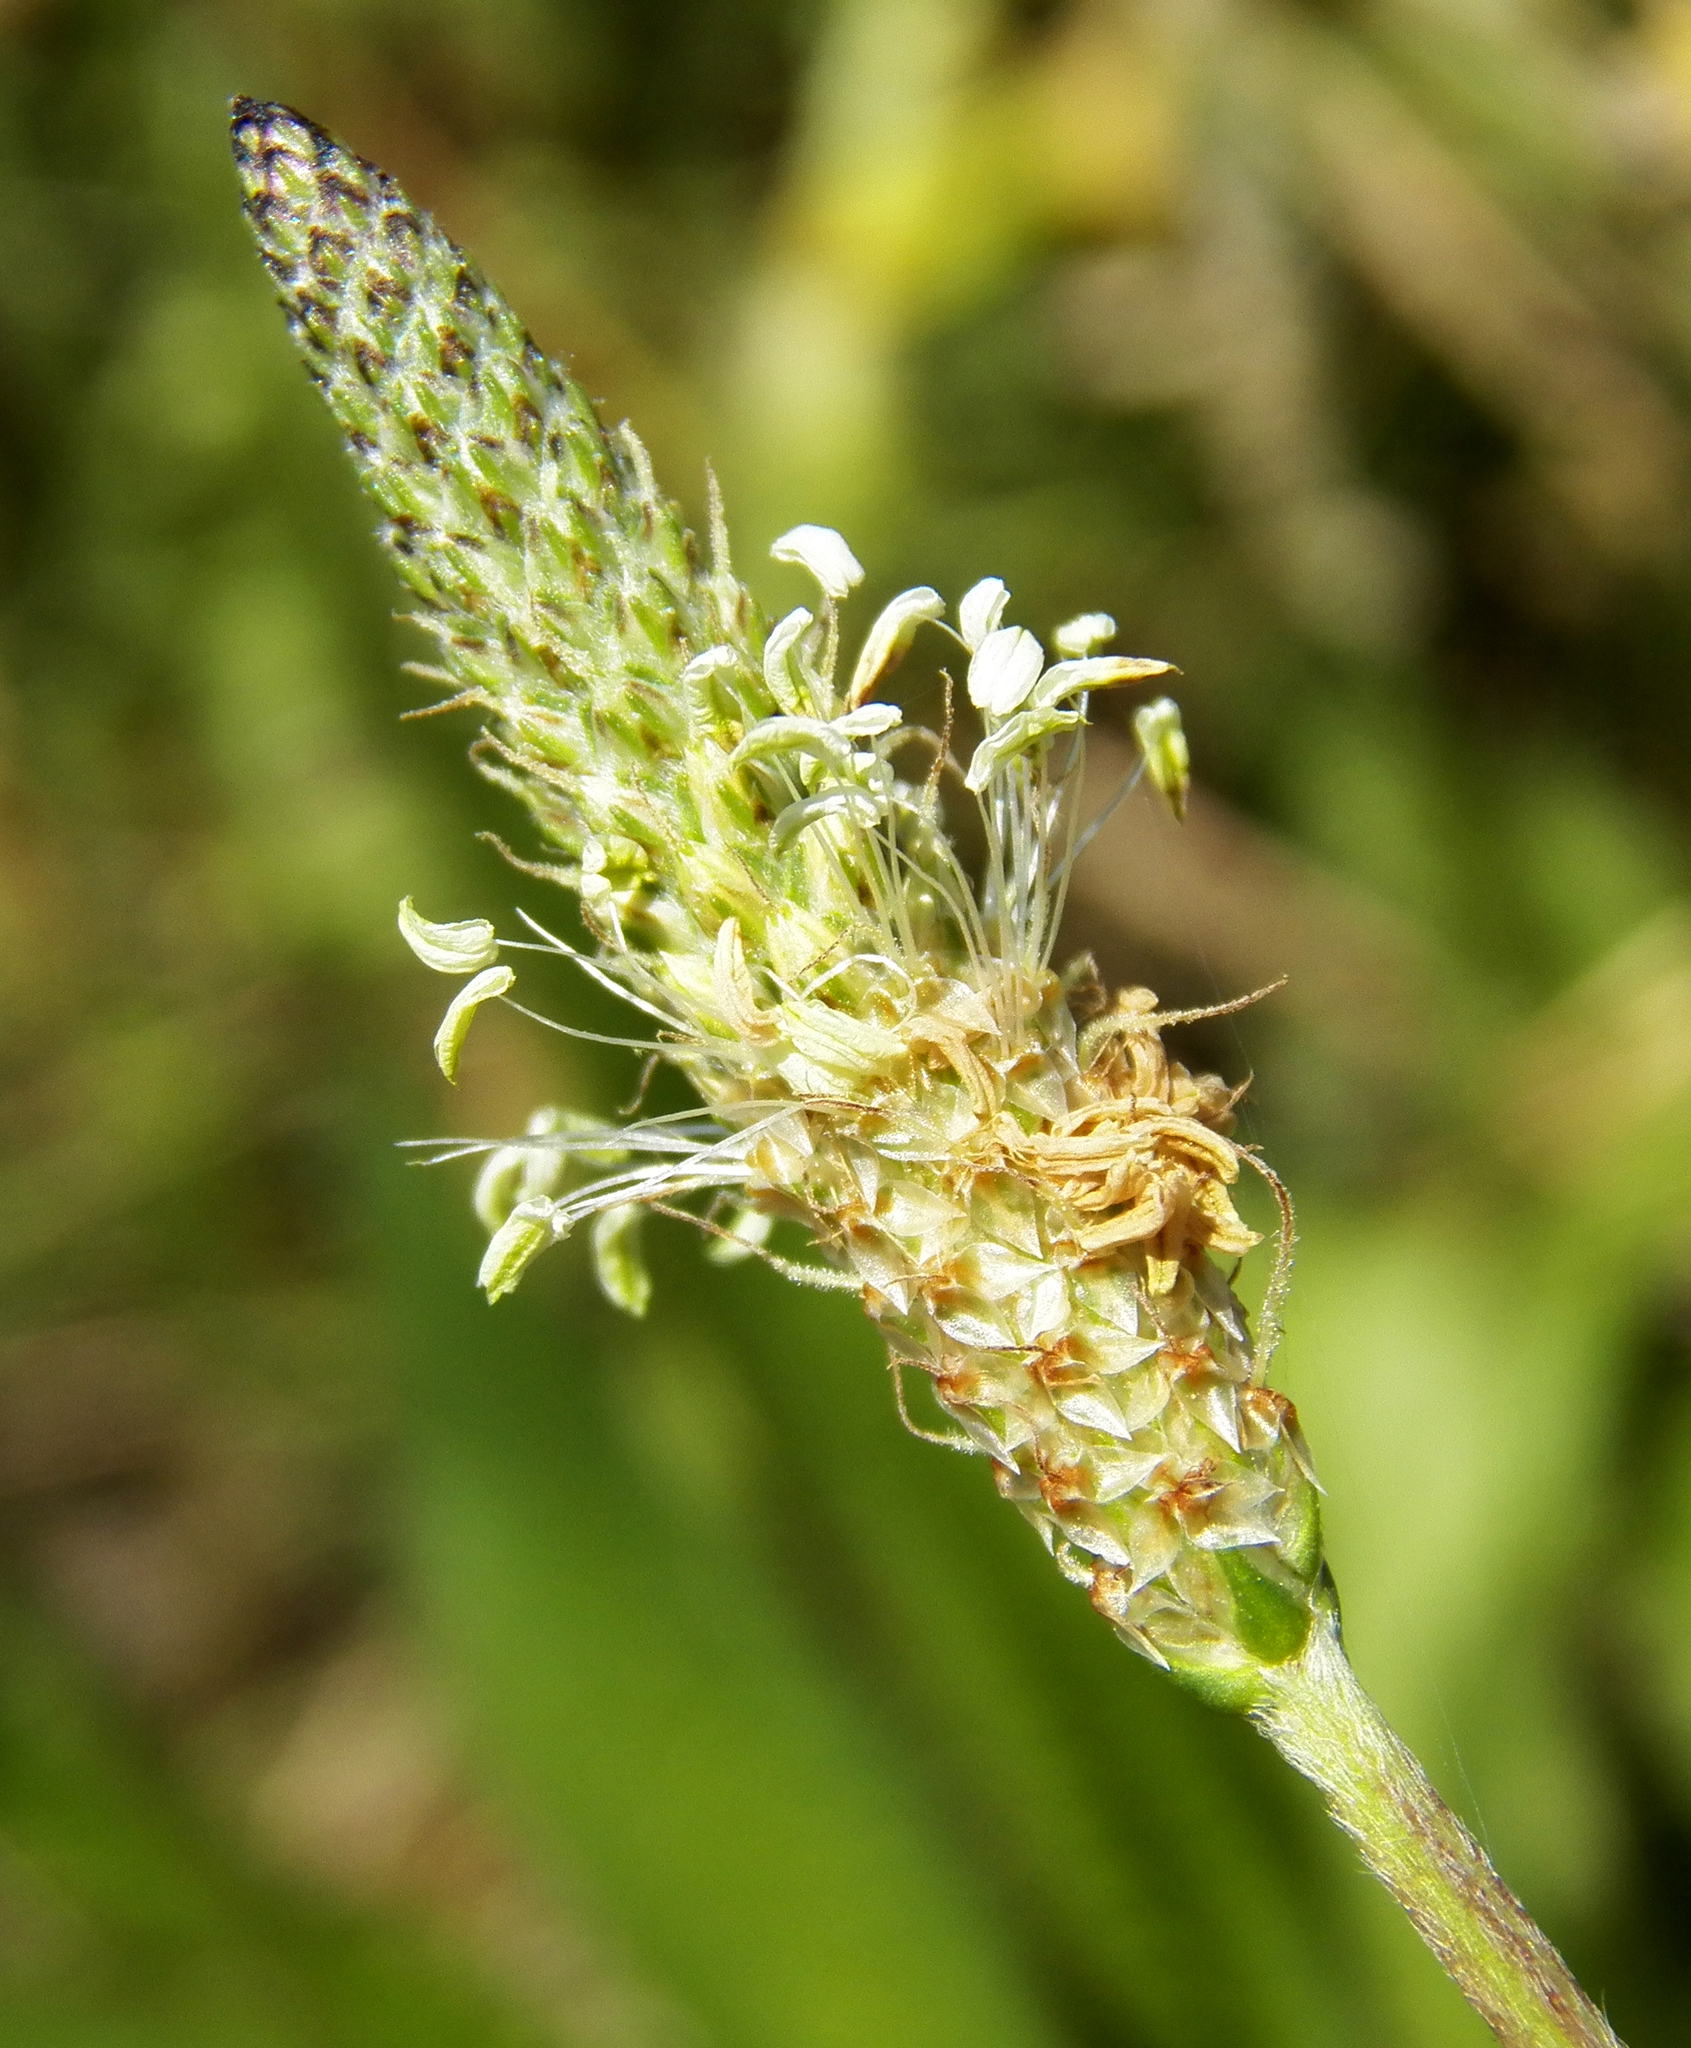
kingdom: Plantae
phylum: Tracheophyta
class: Magnoliopsida
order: Lamiales
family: Plantaginaceae
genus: Plantago
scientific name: Plantago lanceolata
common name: Ribwort plantain
